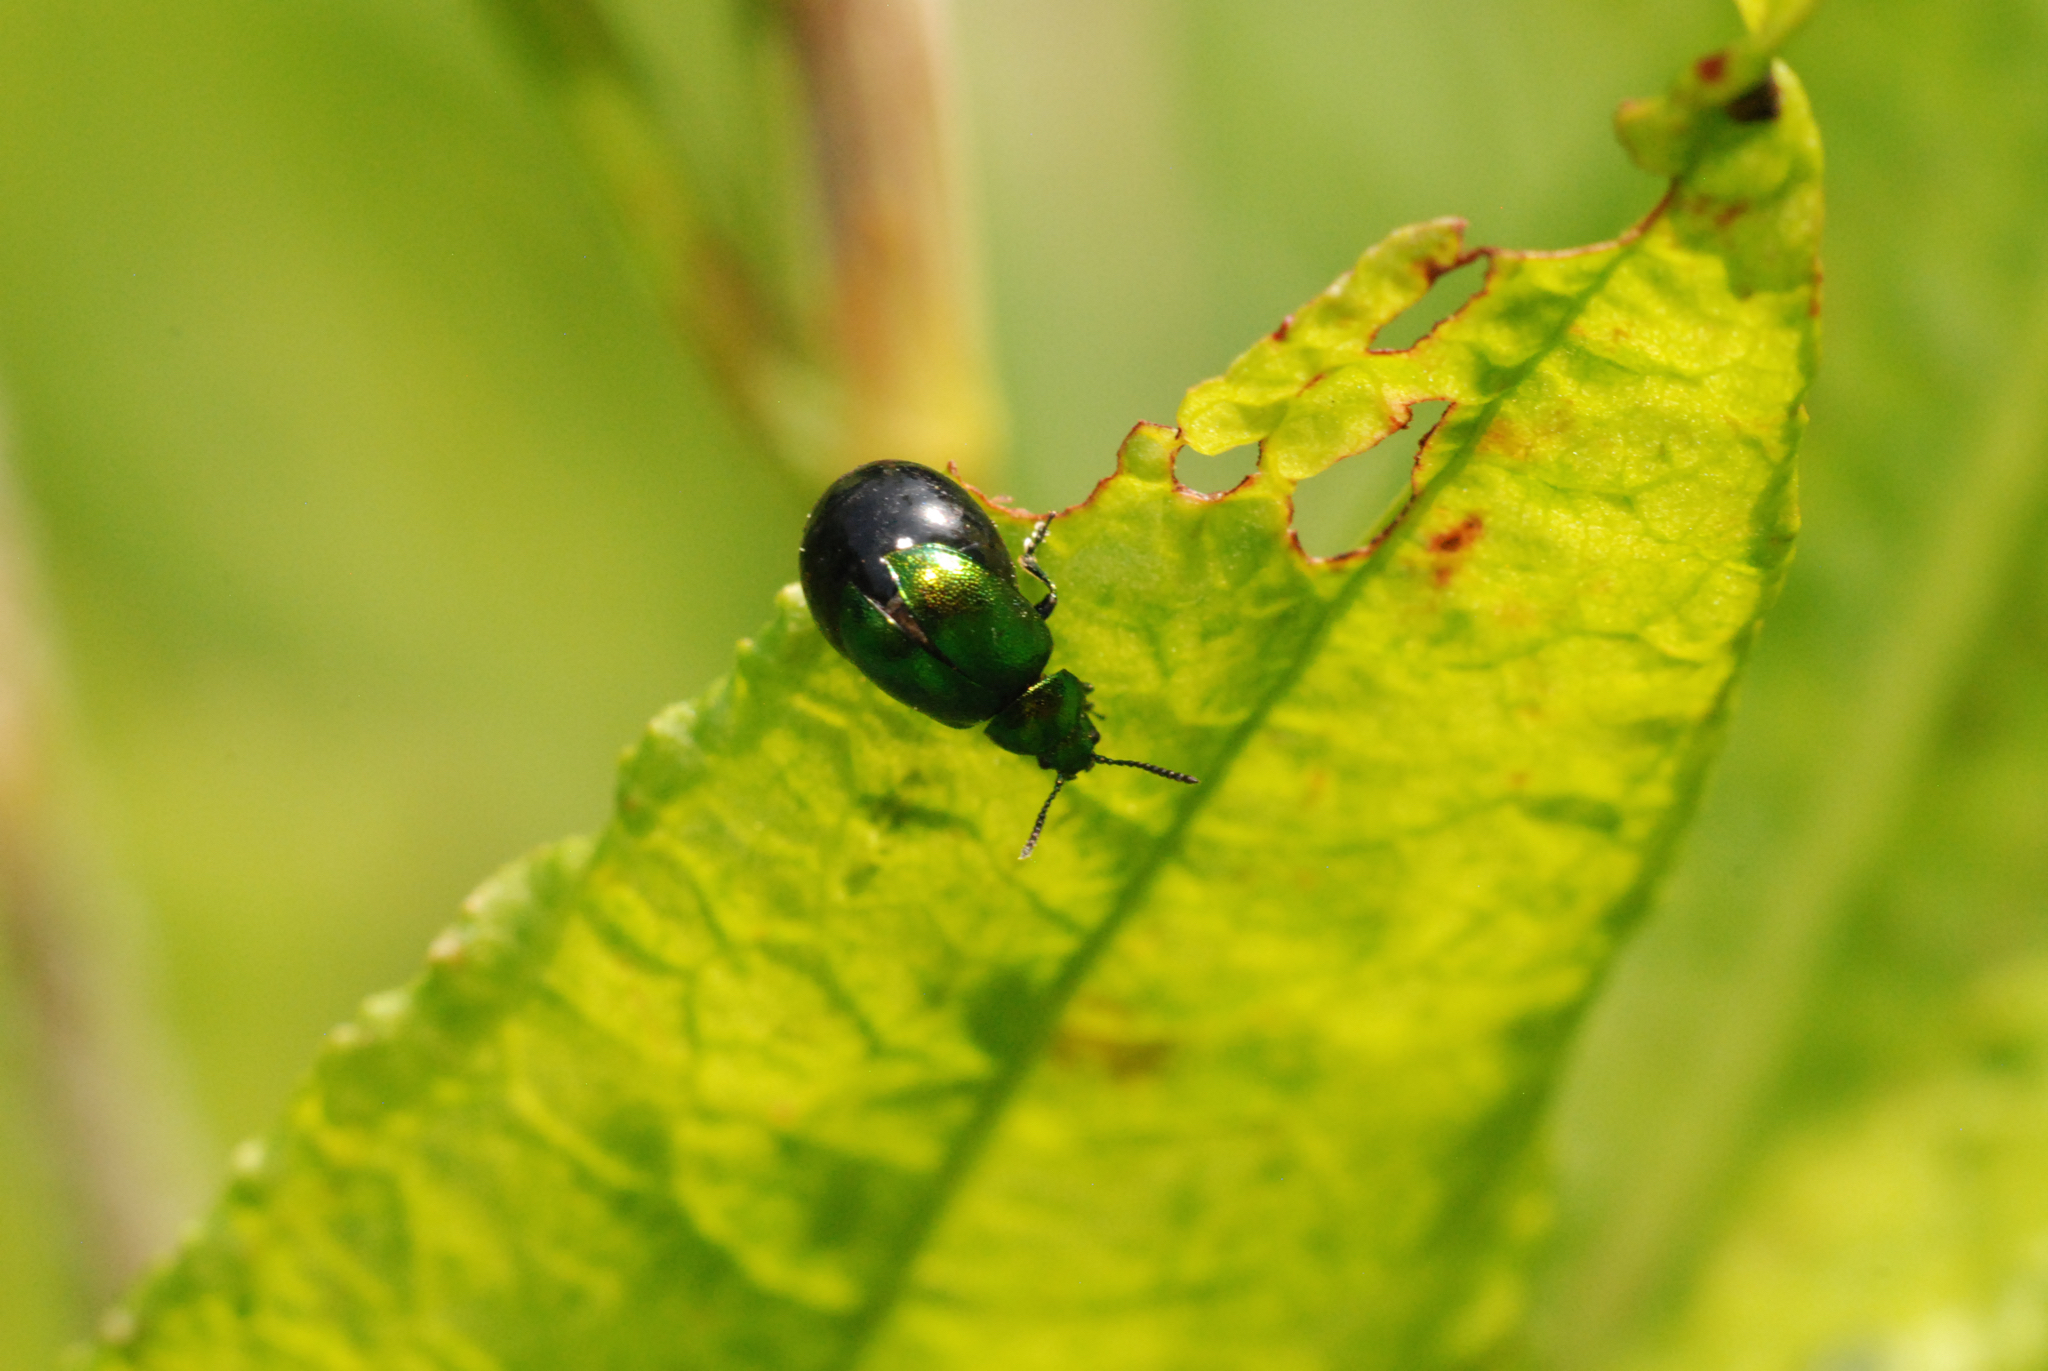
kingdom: Animalia
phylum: Arthropoda
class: Insecta
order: Coleoptera
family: Chrysomelidae
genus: Gastrophysa
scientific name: Gastrophysa viridula
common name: Green dock beetle
